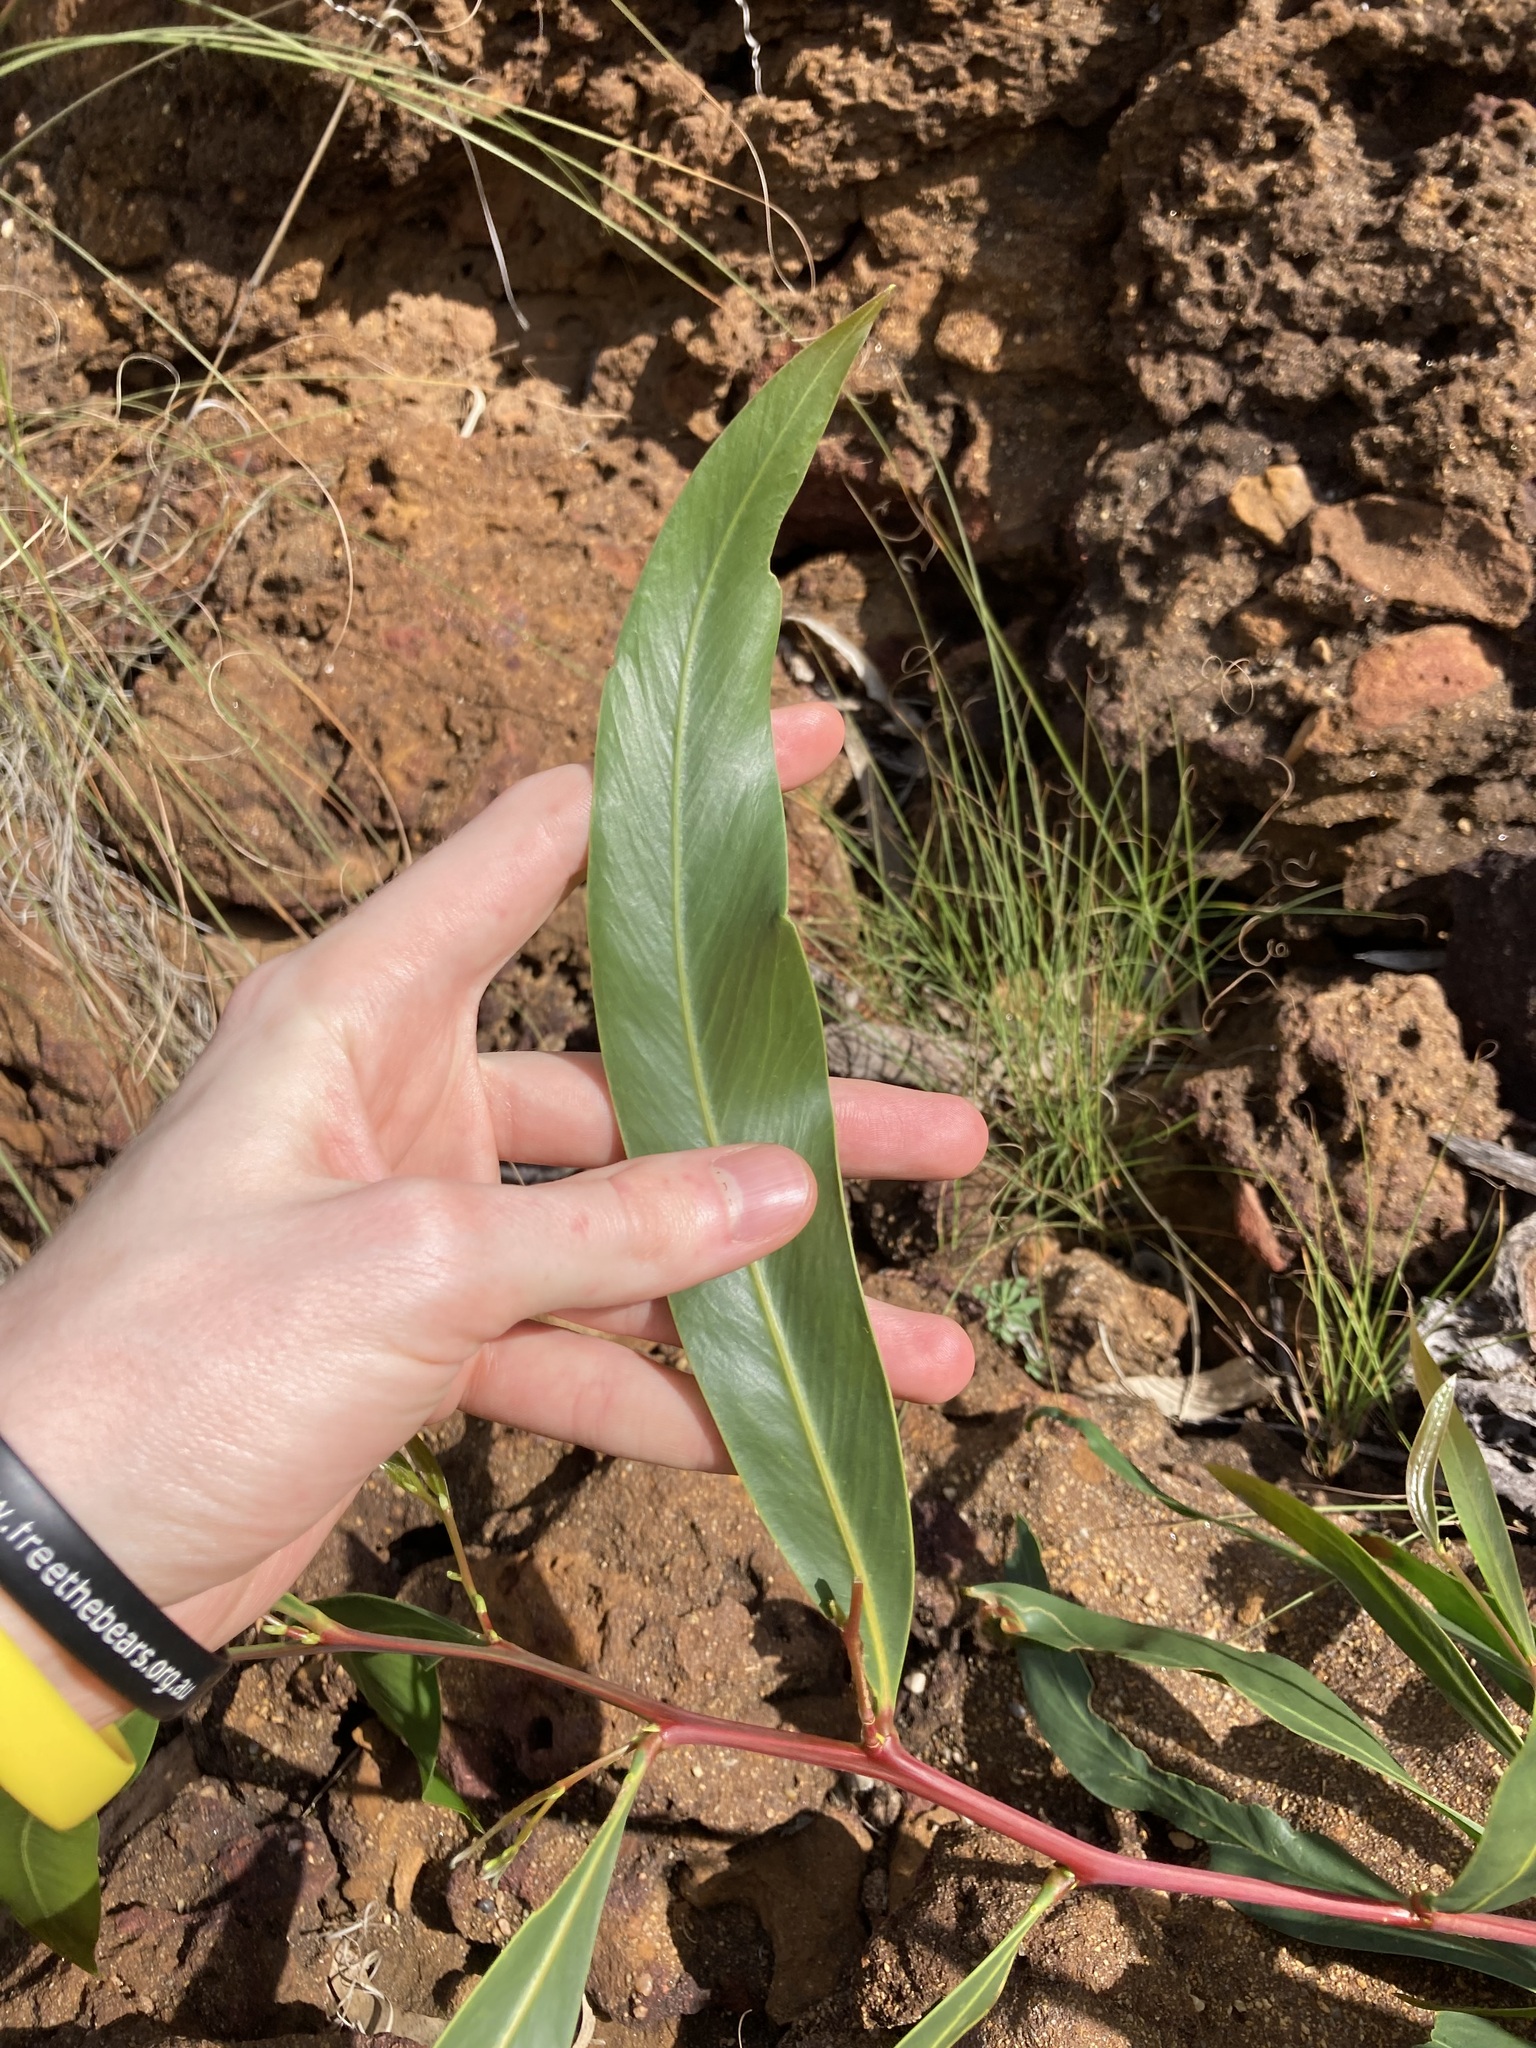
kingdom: Plantae
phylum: Tracheophyta
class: Magnoliopsida
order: Fabales
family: Fabaceae
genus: Acacia
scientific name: Acacia saligna
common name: Orange wattle
